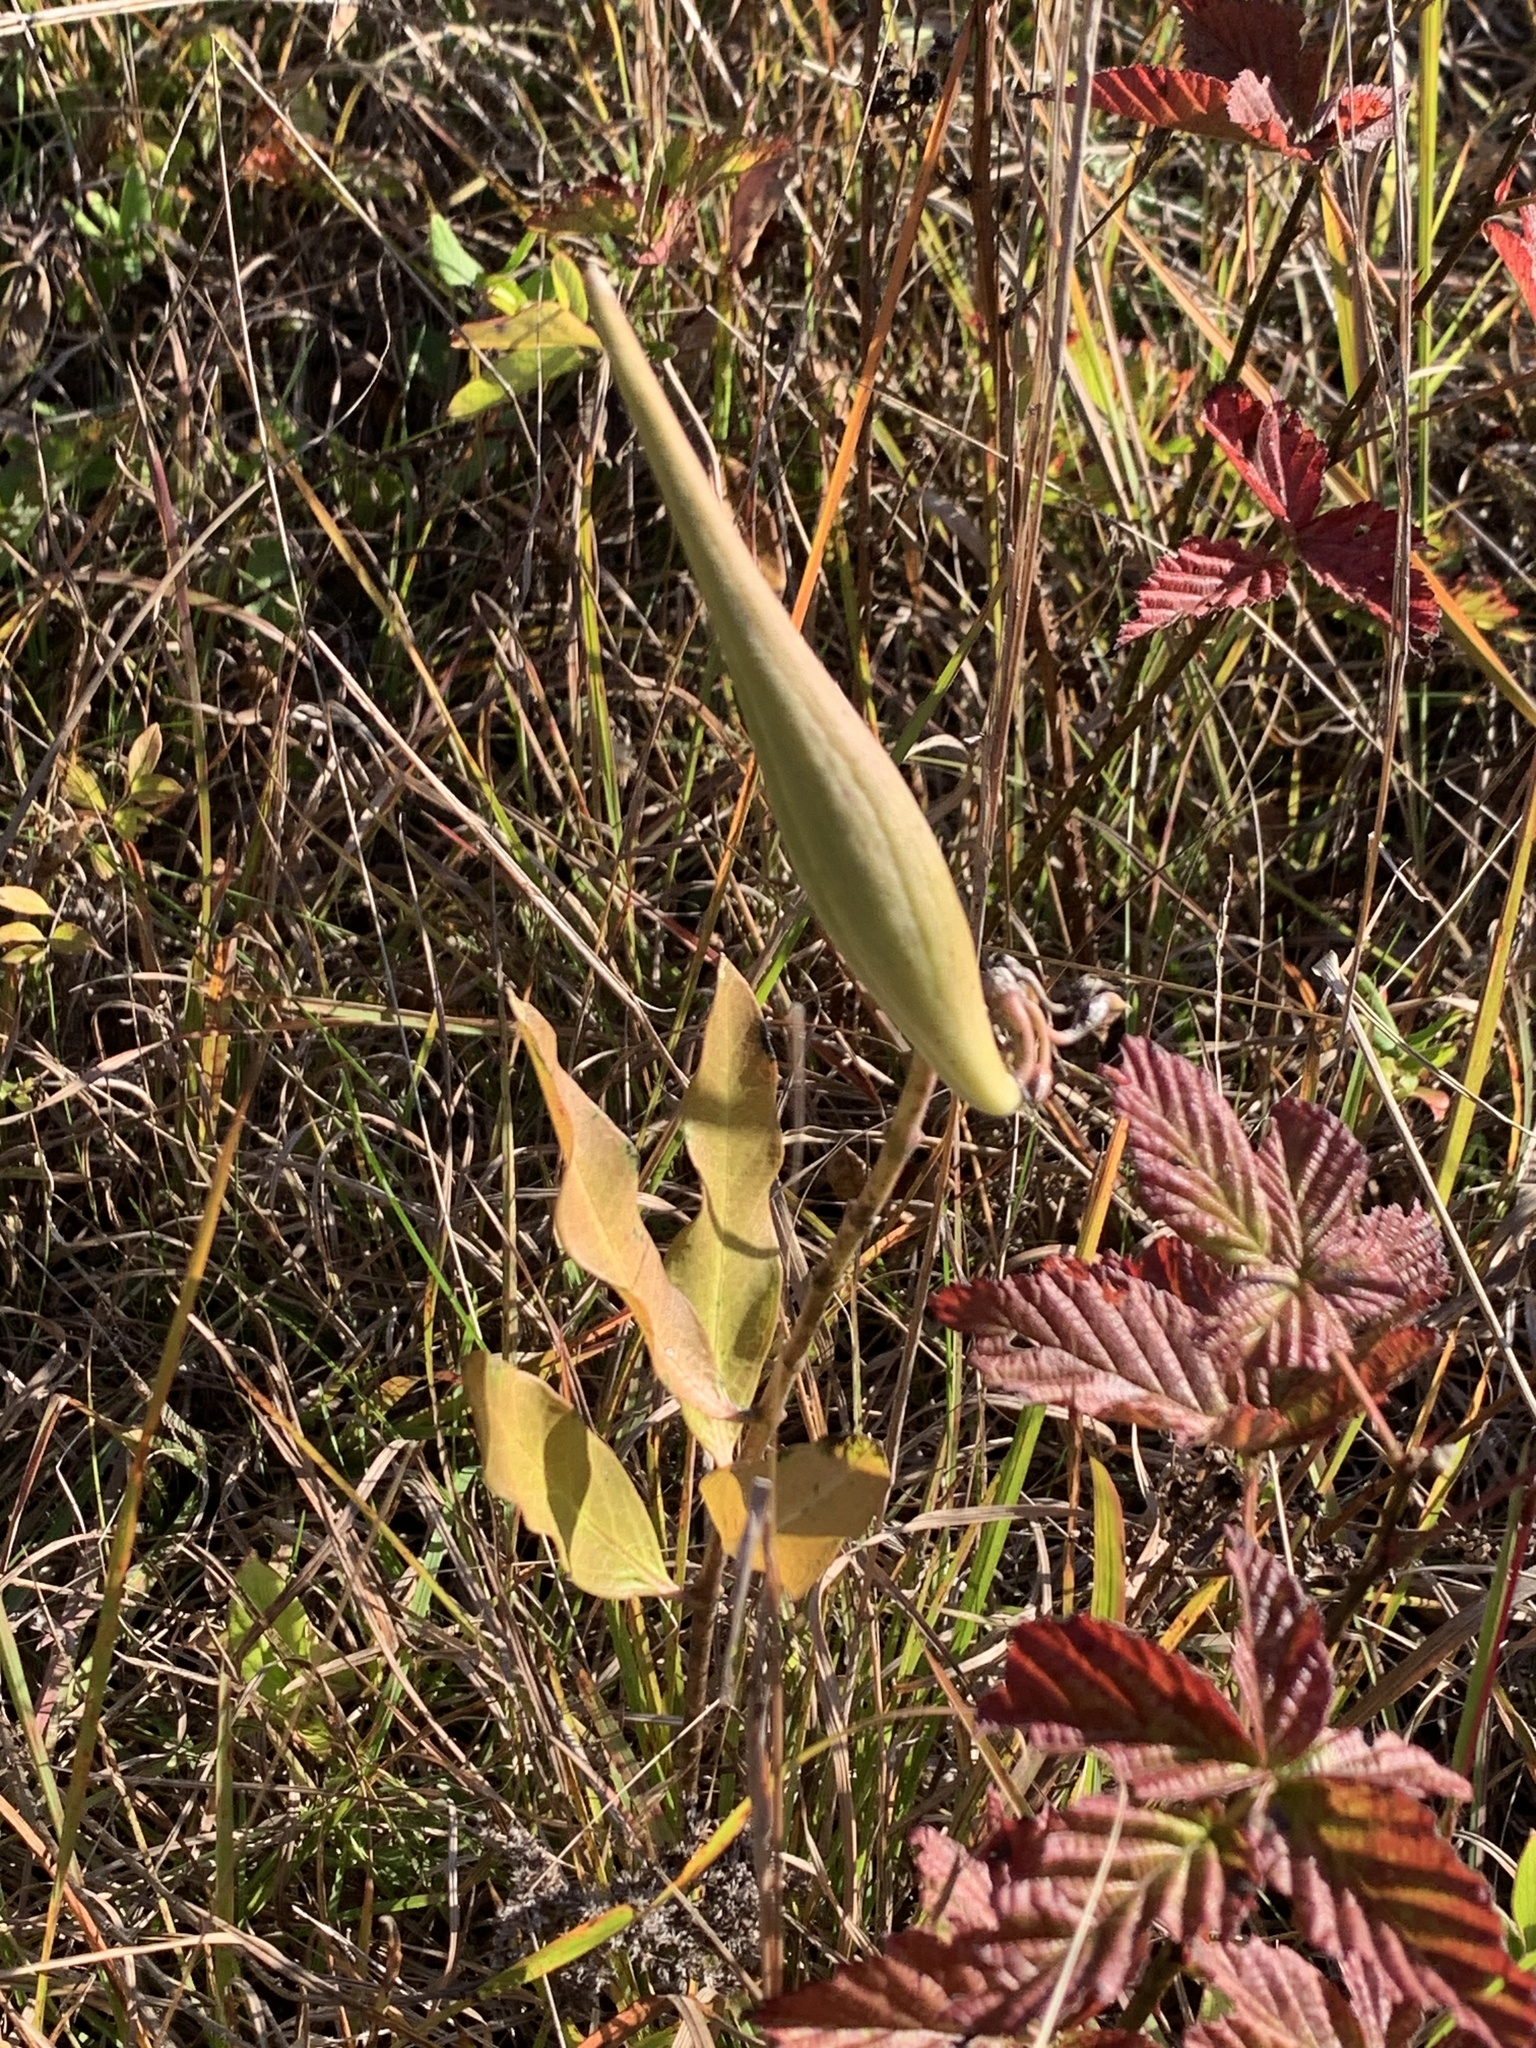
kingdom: Plantae
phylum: Tracheophyta
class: Magnoliopsida
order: Gentianales
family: Apocynaceae
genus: Asclepias
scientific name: Asclepias viridiflora
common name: Green comet milkweed
